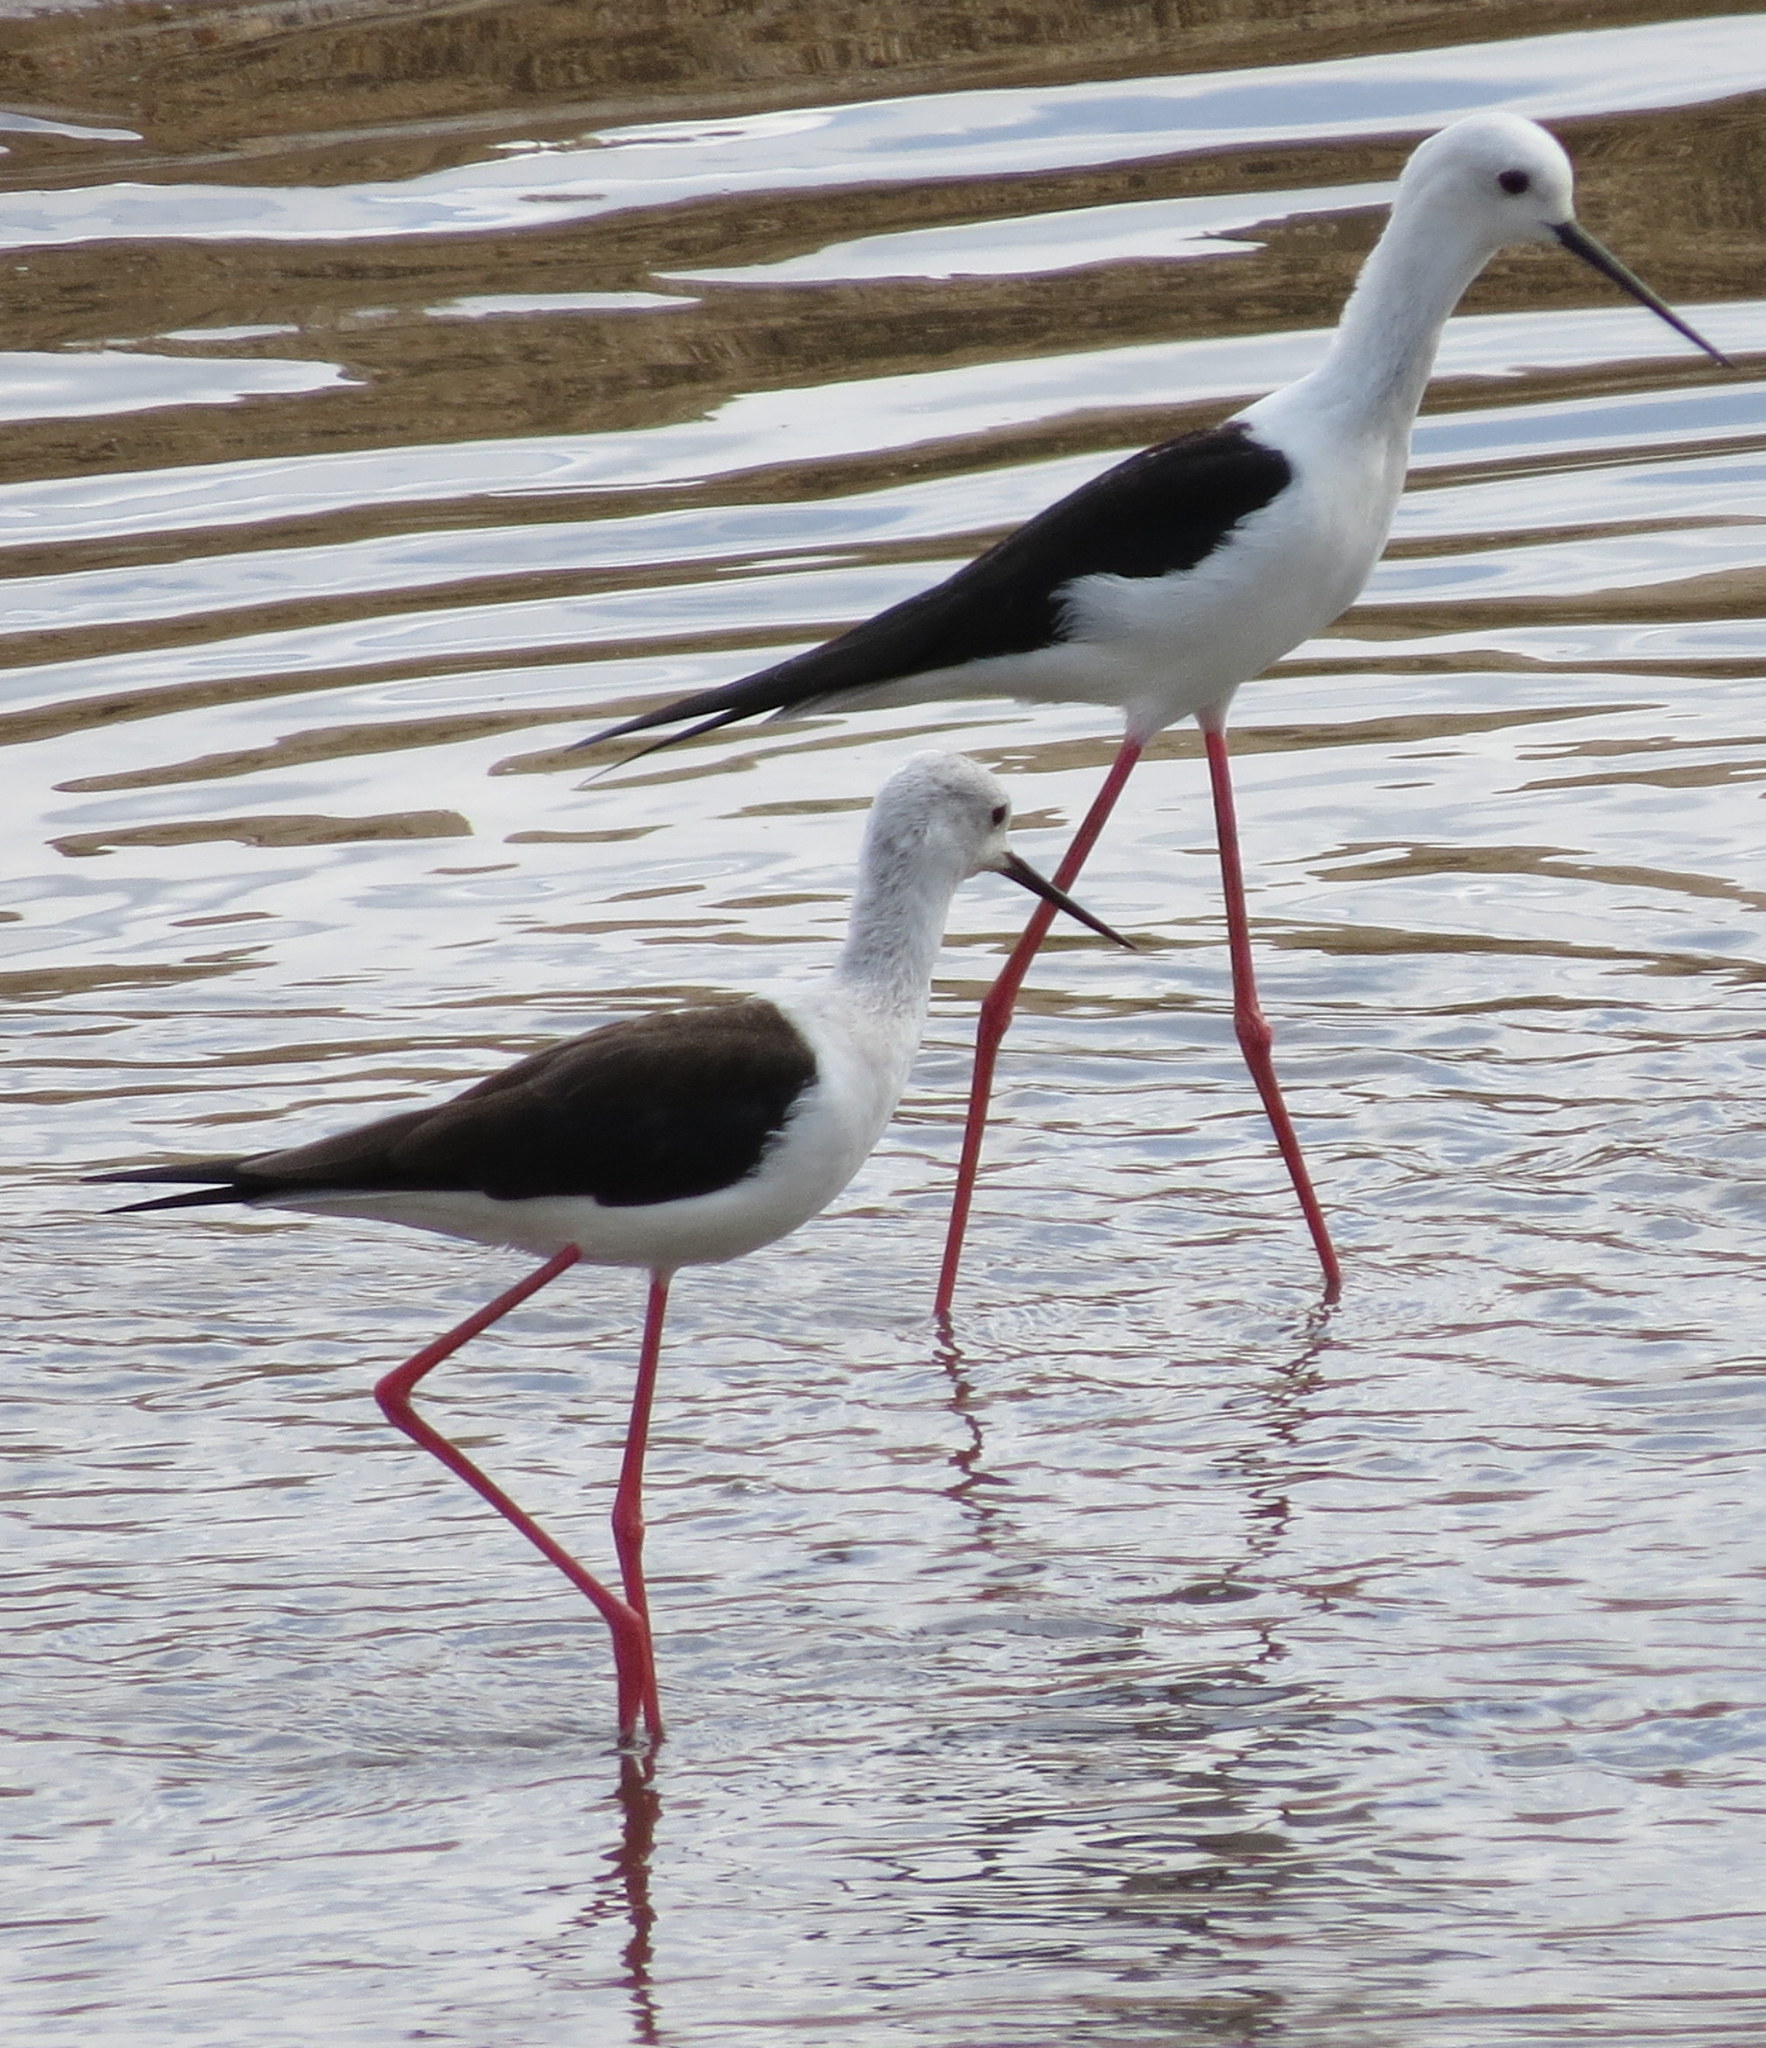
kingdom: Animalia
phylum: Chordata
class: Aves
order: Charadriiformes
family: Recurvirostridae
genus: Himantopus
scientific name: Himantopus himantopus
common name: Black-winged stilt
